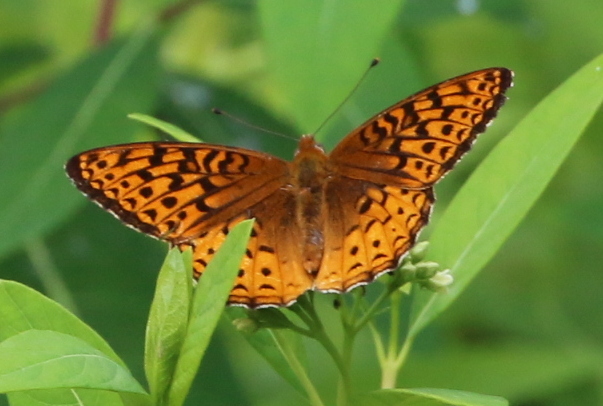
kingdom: Animalia
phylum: Arthropoda
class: Insecta
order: Lepidoptera
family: Nymphalidae
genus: Speyeria
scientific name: Speyeria atlantis
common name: Atlantis fritillary
